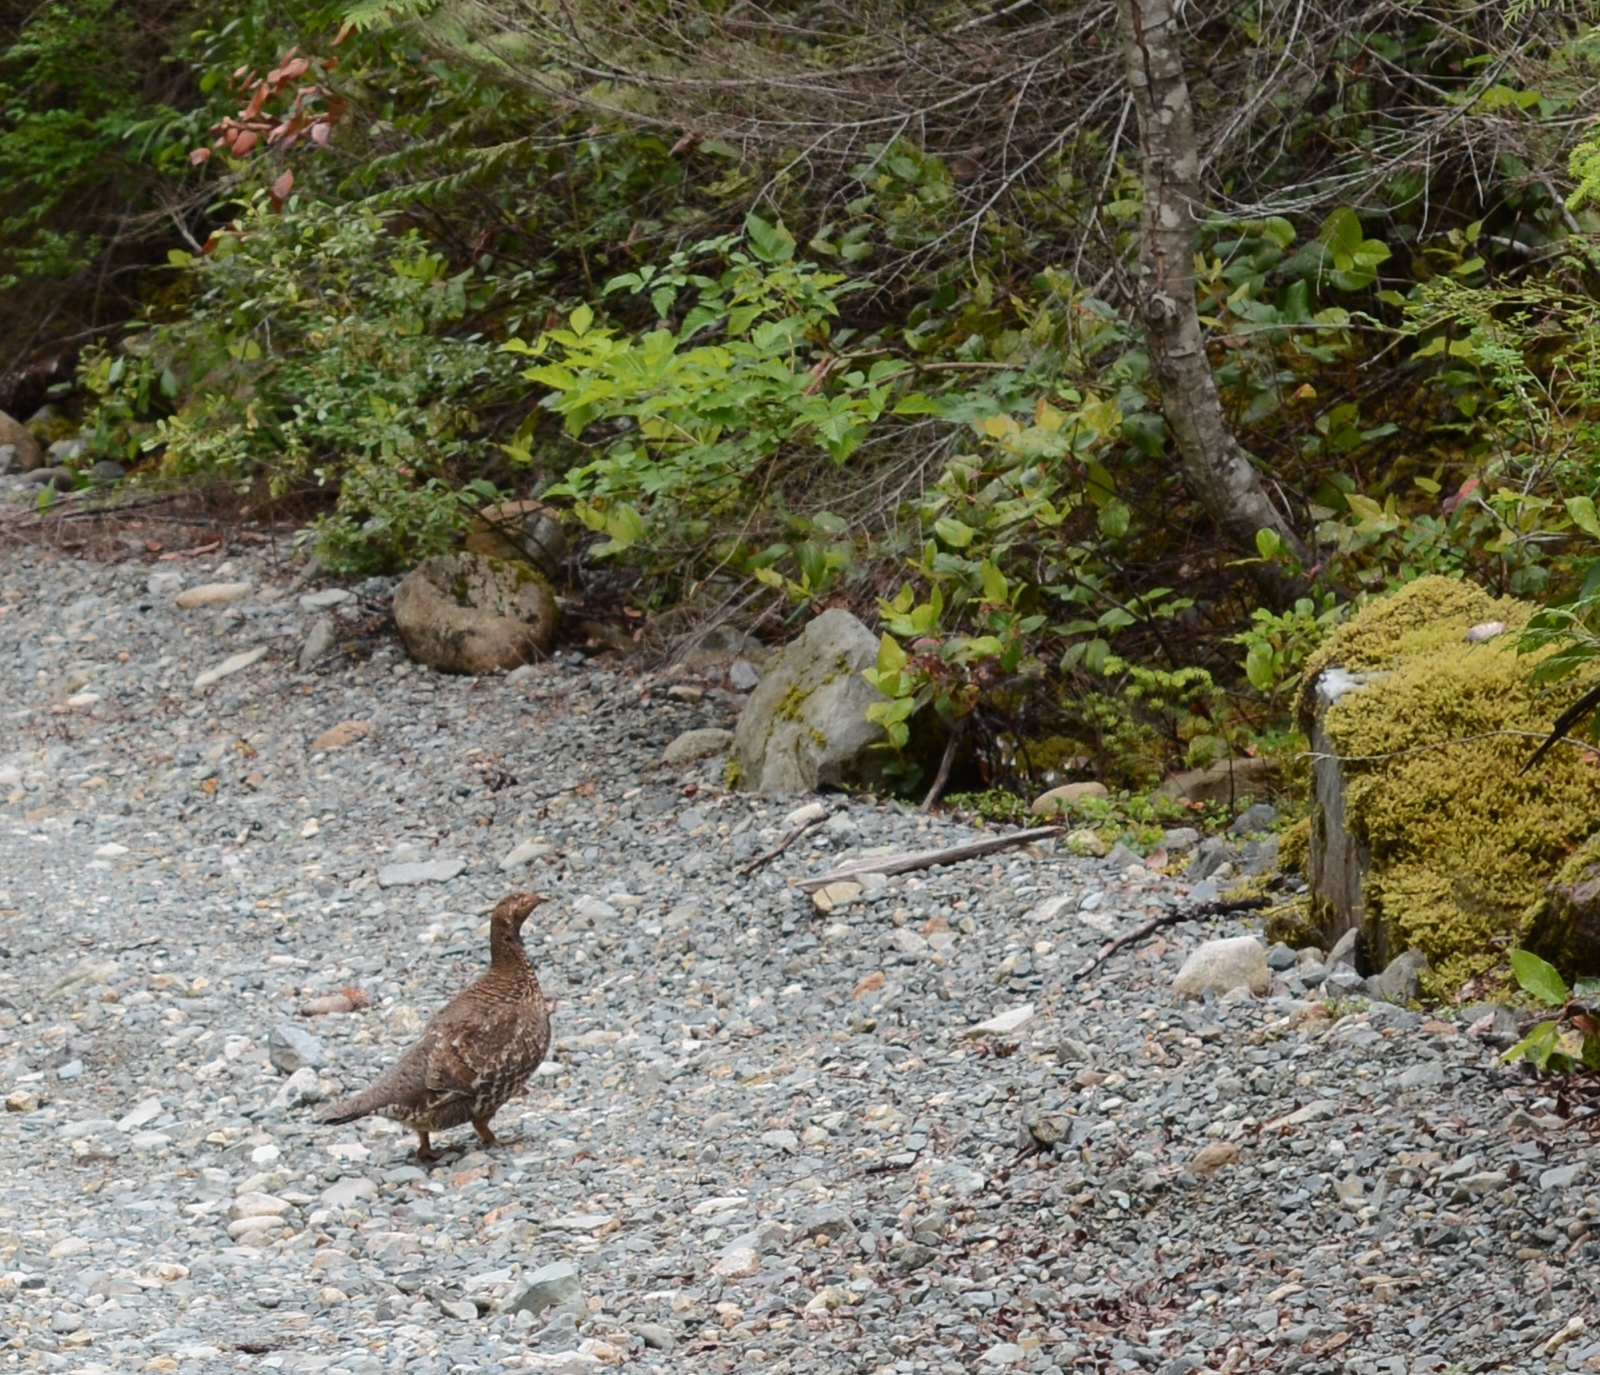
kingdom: Animalia
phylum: Chordata
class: Aves
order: Galliformes
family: Phasianidae
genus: Dendragapus
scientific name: Dendragapus fuliginosus
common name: Sooty grouse
